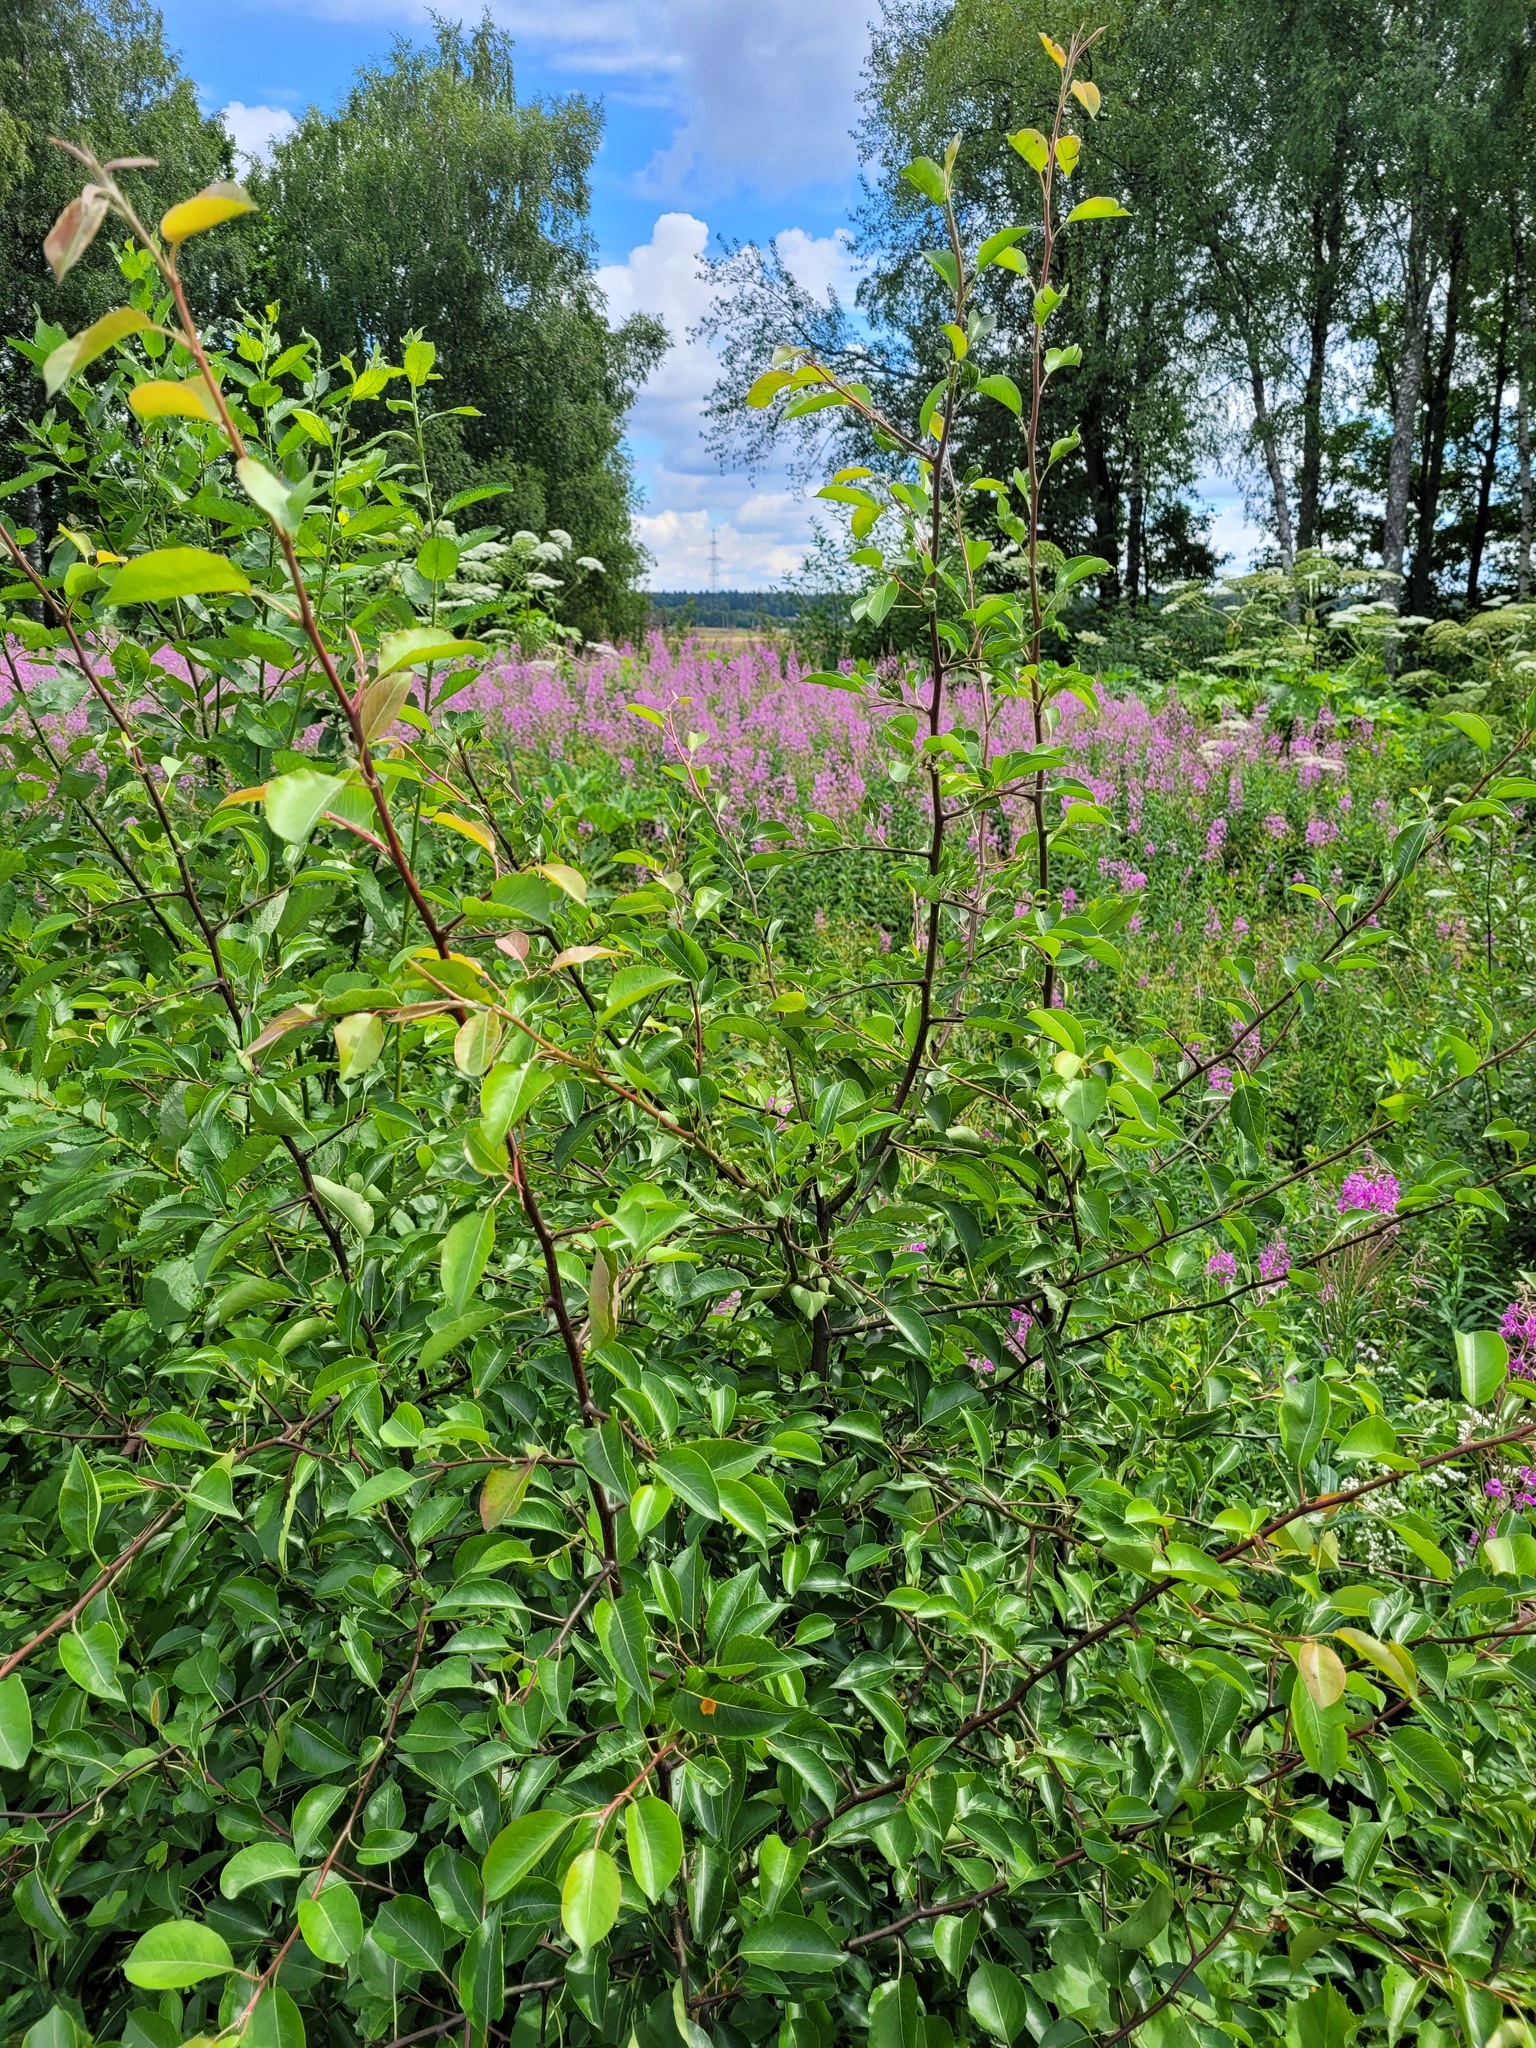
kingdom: Plantae
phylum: Tracheophyta
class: Magnoliopsida
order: Rosales
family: Rosaceae
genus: Pyrus
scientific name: Pyrus communis
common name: Pear
